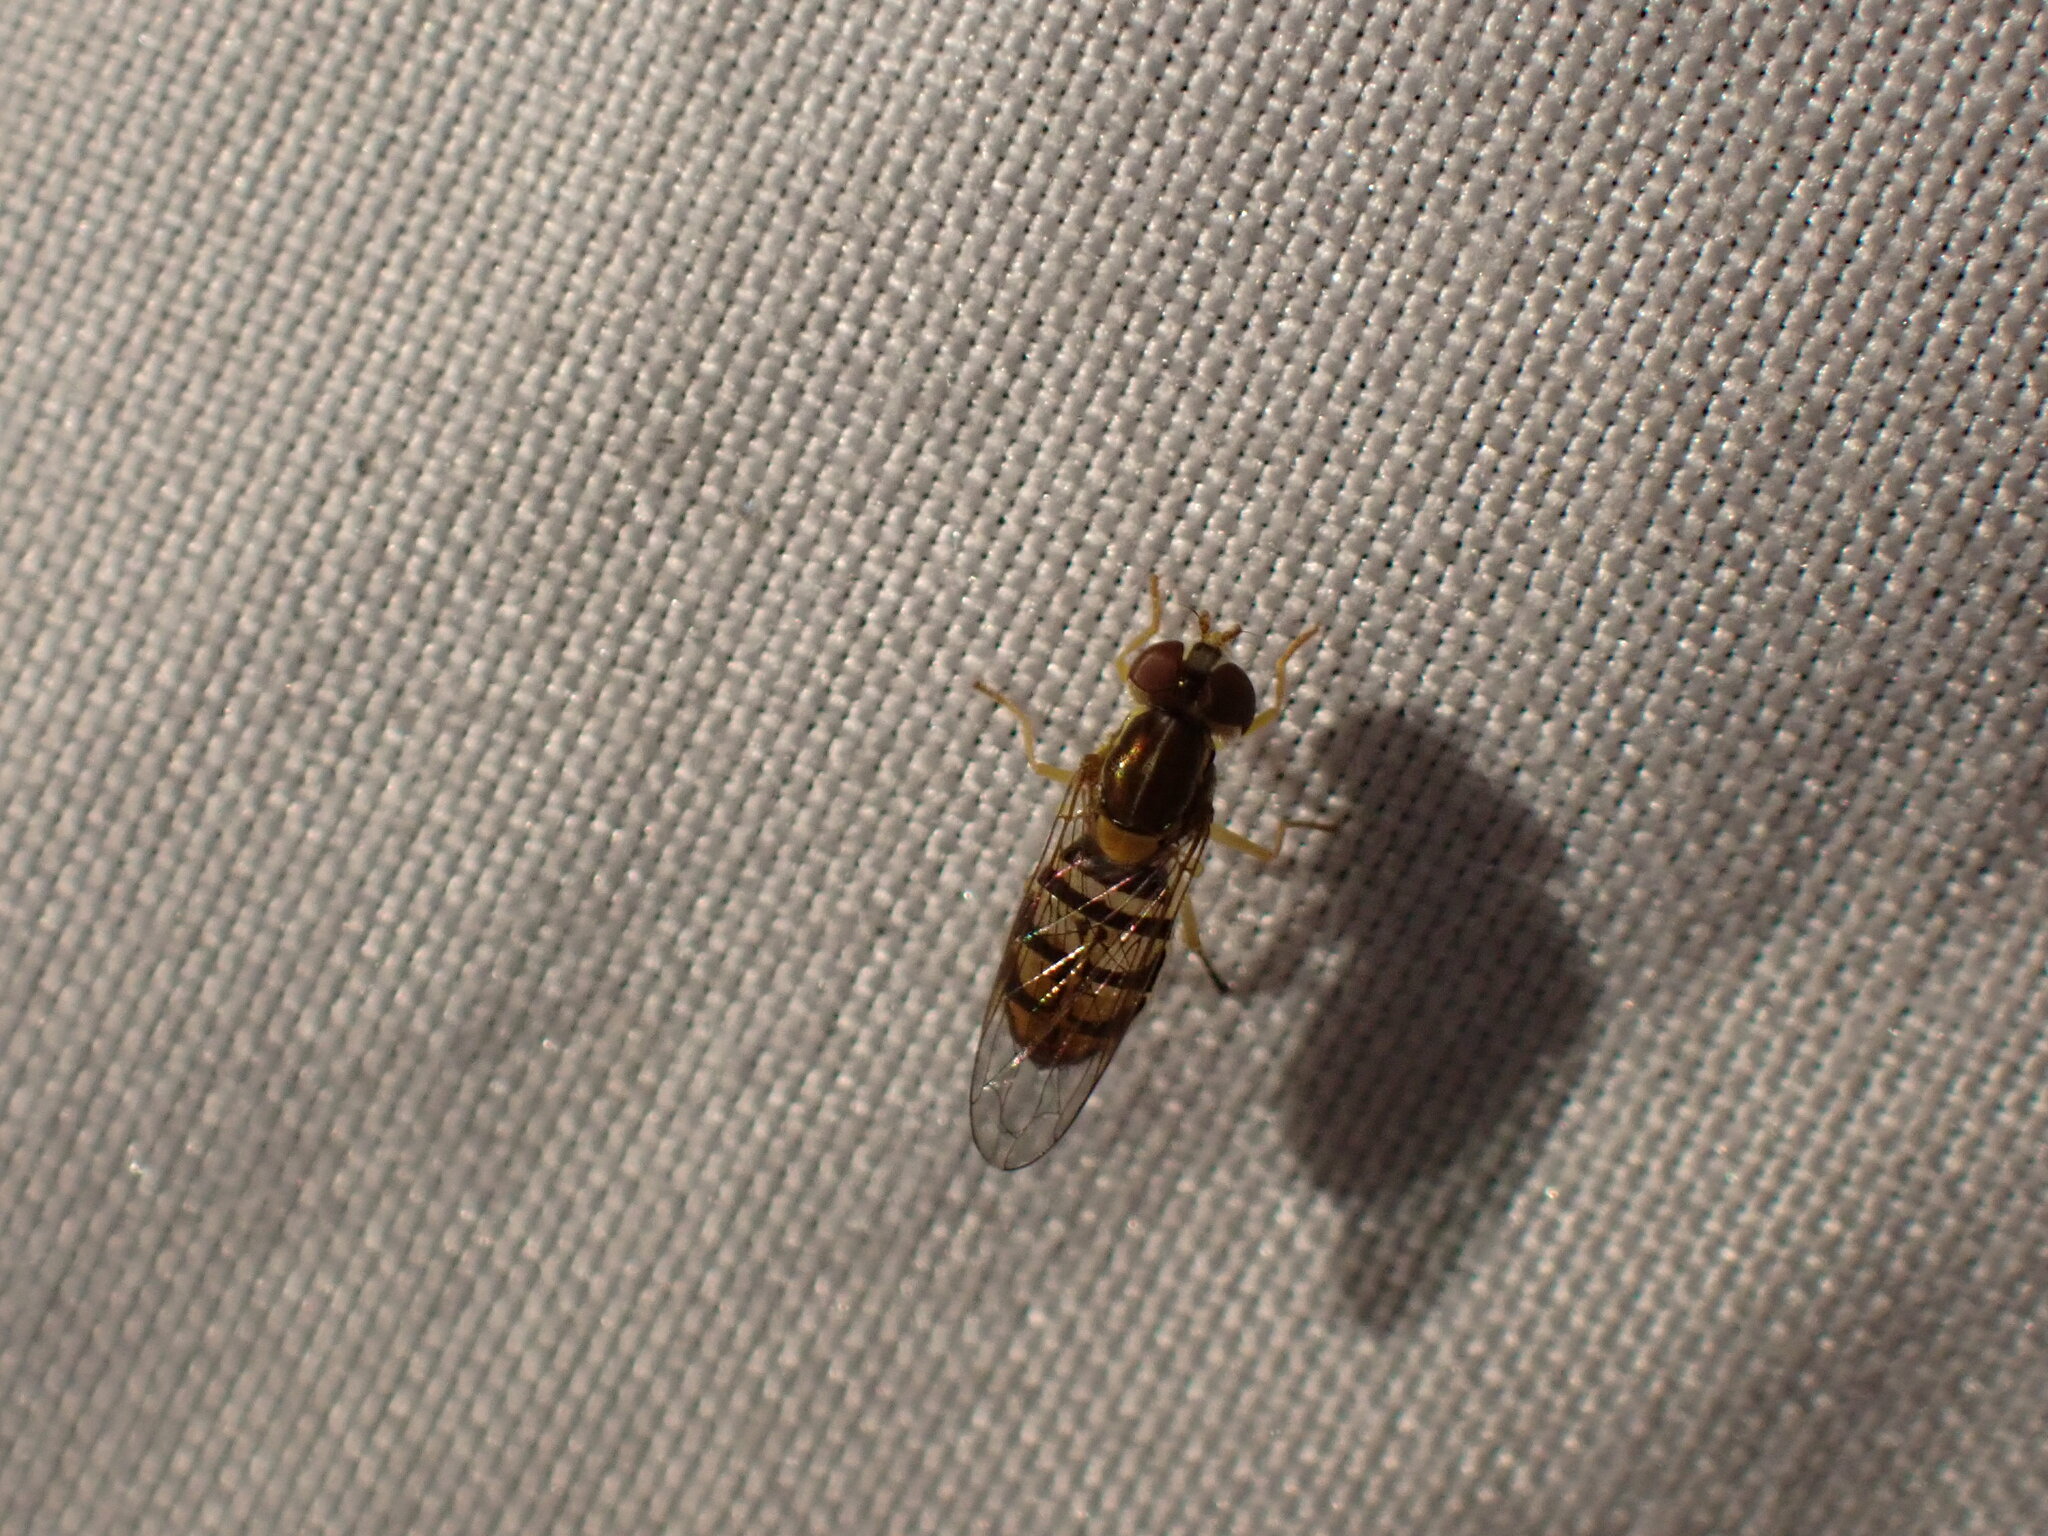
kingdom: Animalia
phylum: Arthropoda
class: Insecta
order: Diptera
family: Syrphidae
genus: Toxomerus
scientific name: Toxomerus marginatus
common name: Syrphid fly
